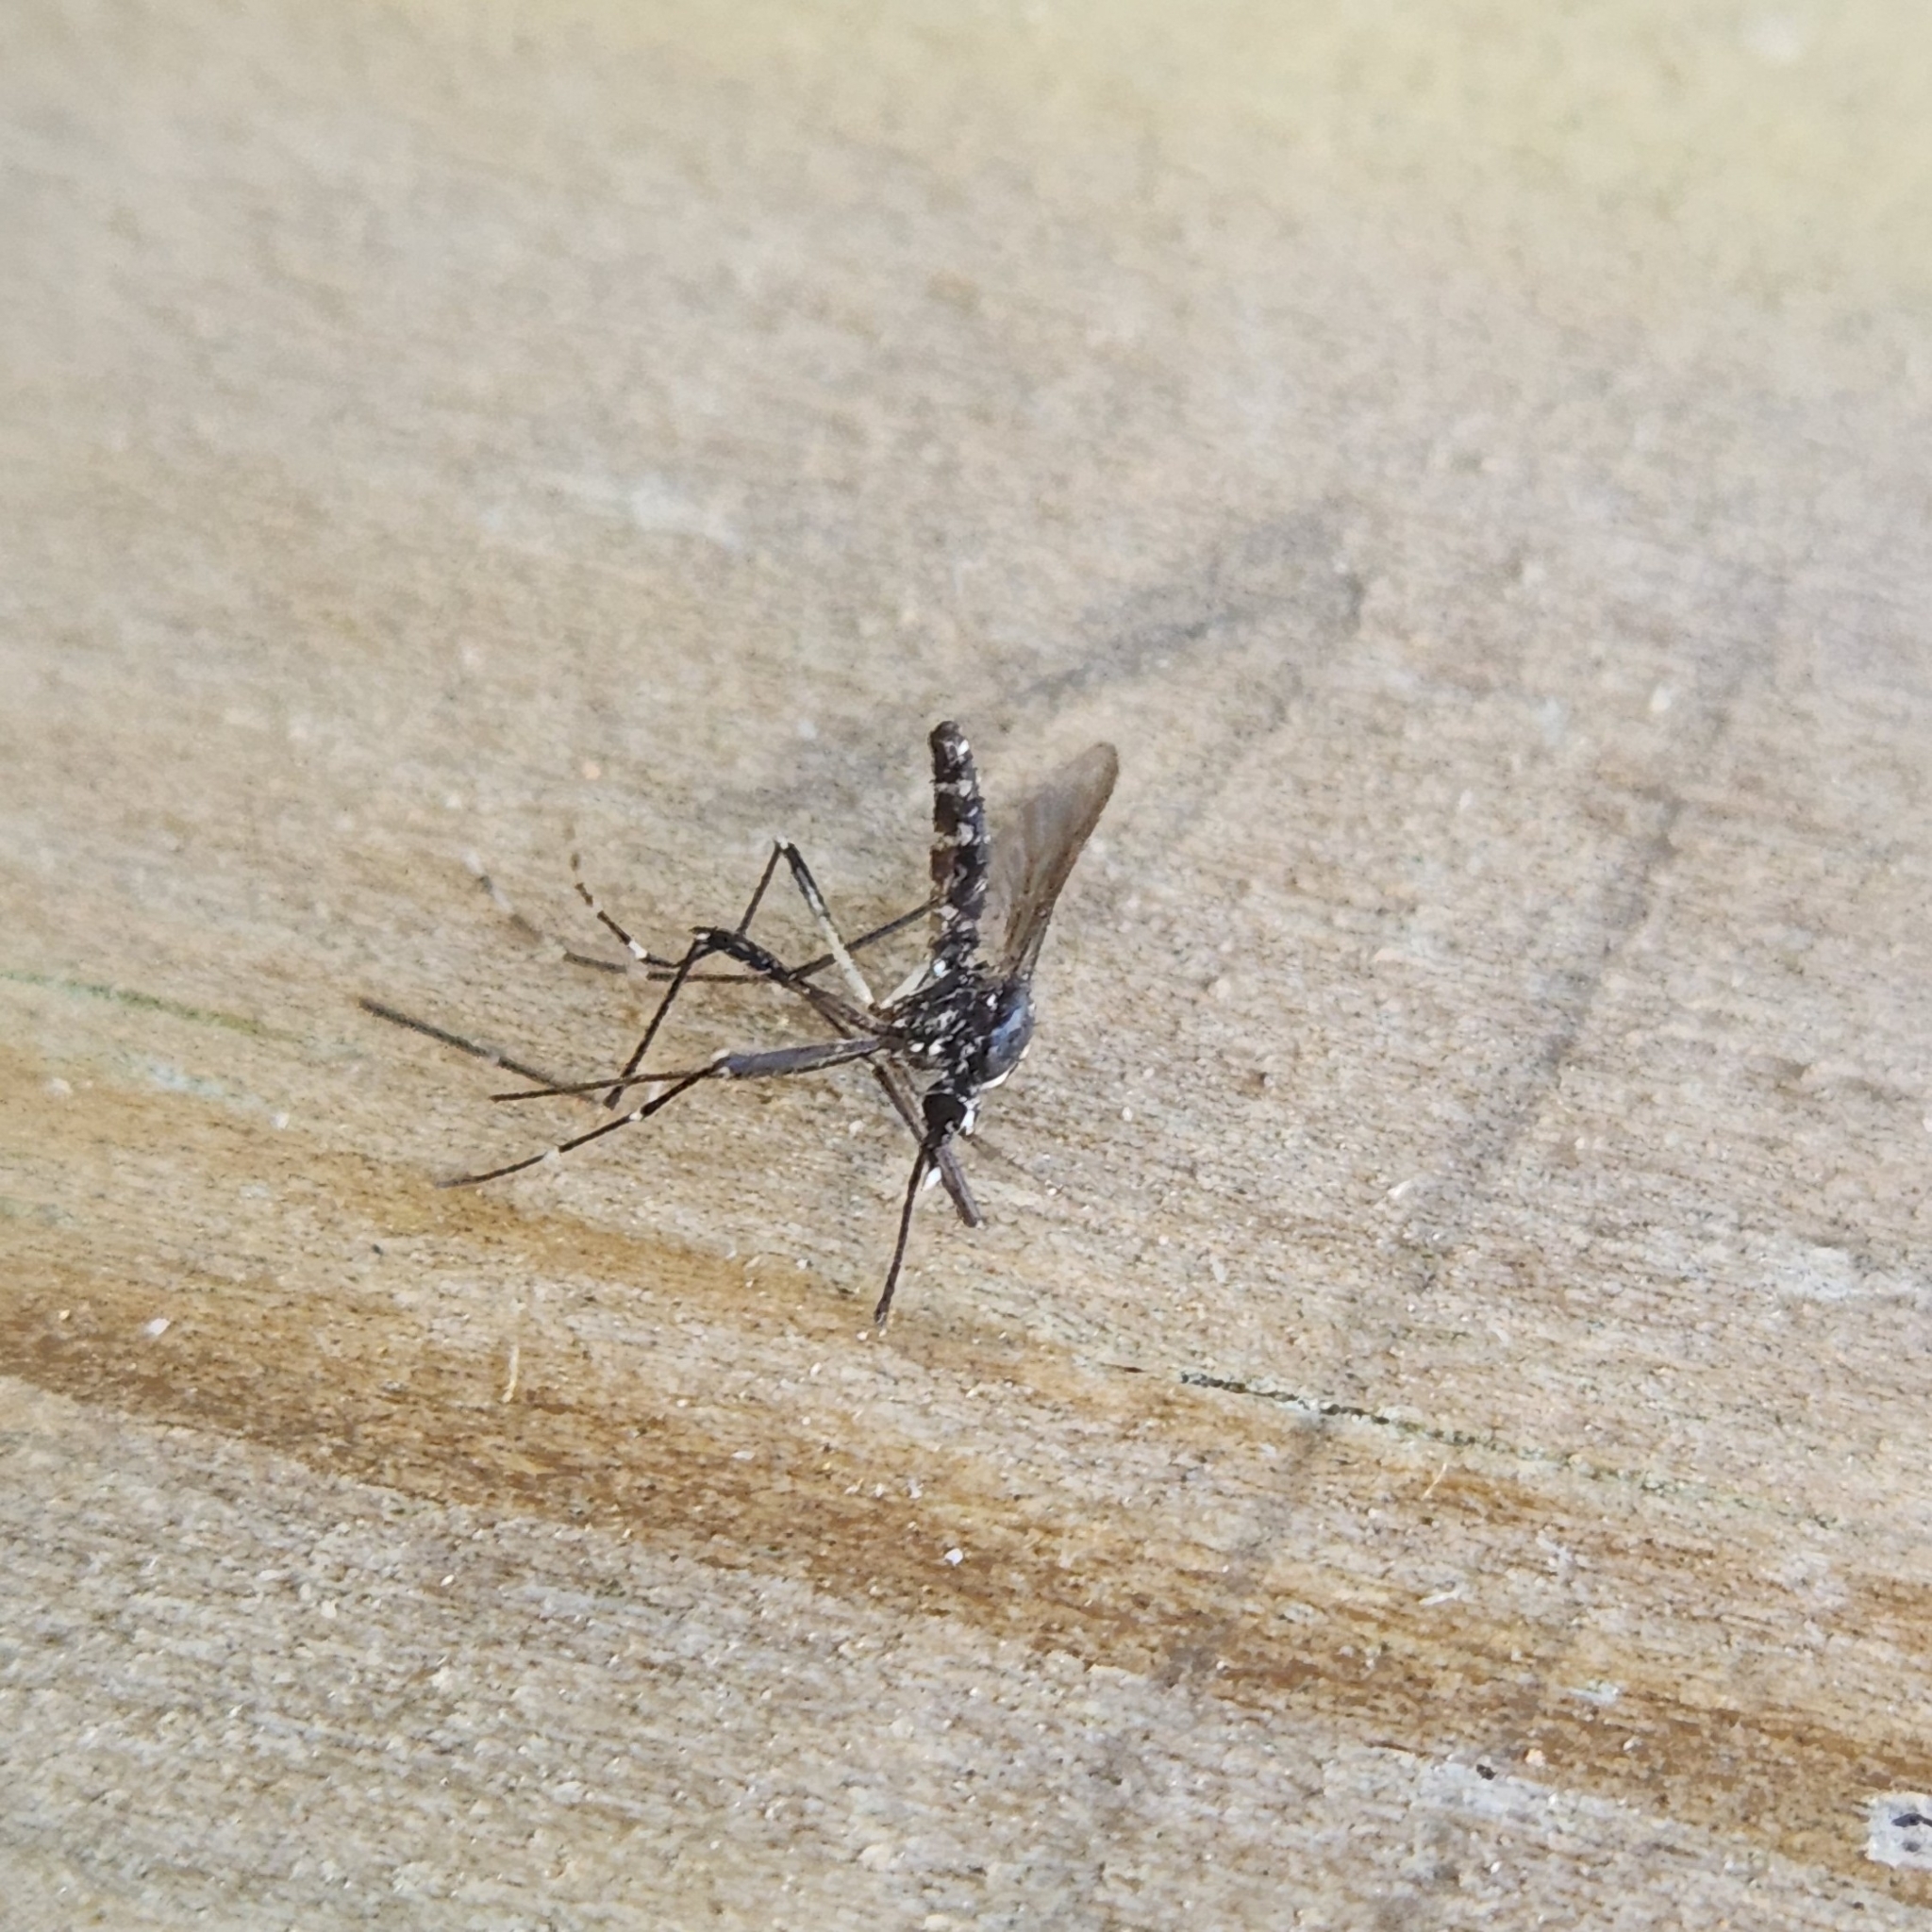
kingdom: Animalia
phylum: Arthropoda
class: Insecta
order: Diptera
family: Culicidae
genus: Aedes
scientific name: Aedes albopictus
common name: Tiger mosquito
